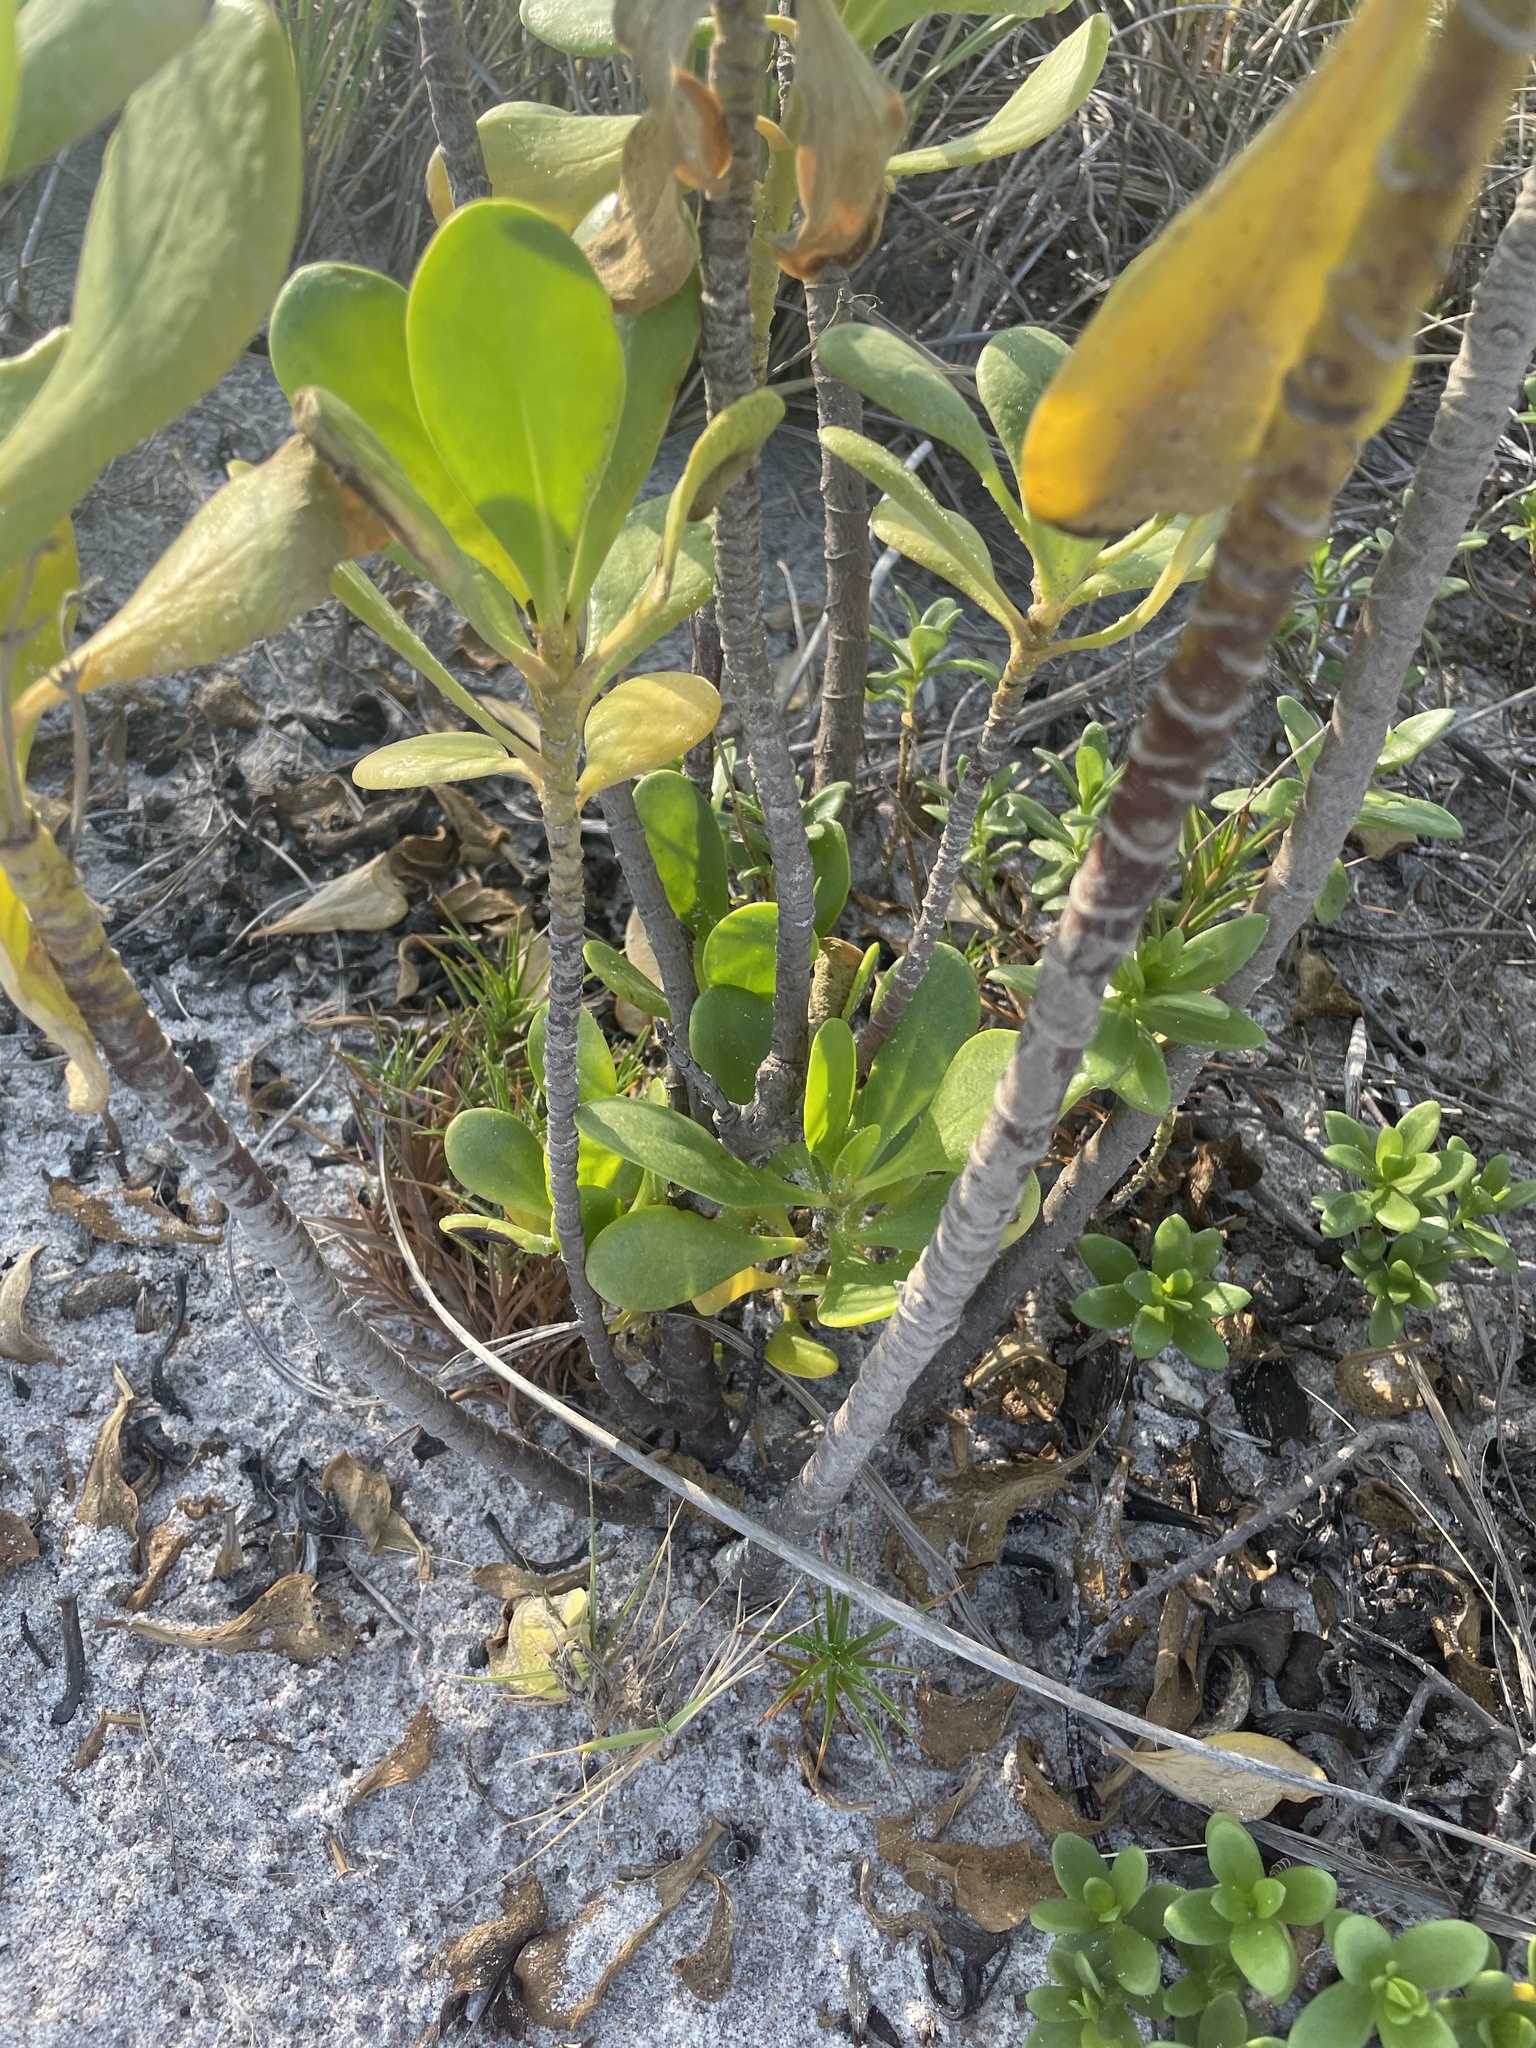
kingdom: Plantae
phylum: Tracheophyta
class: Magnoliopsida
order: Asterales
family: Goodeniaceae
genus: Scaevola
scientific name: Scaevola plumieri
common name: Gull feed
